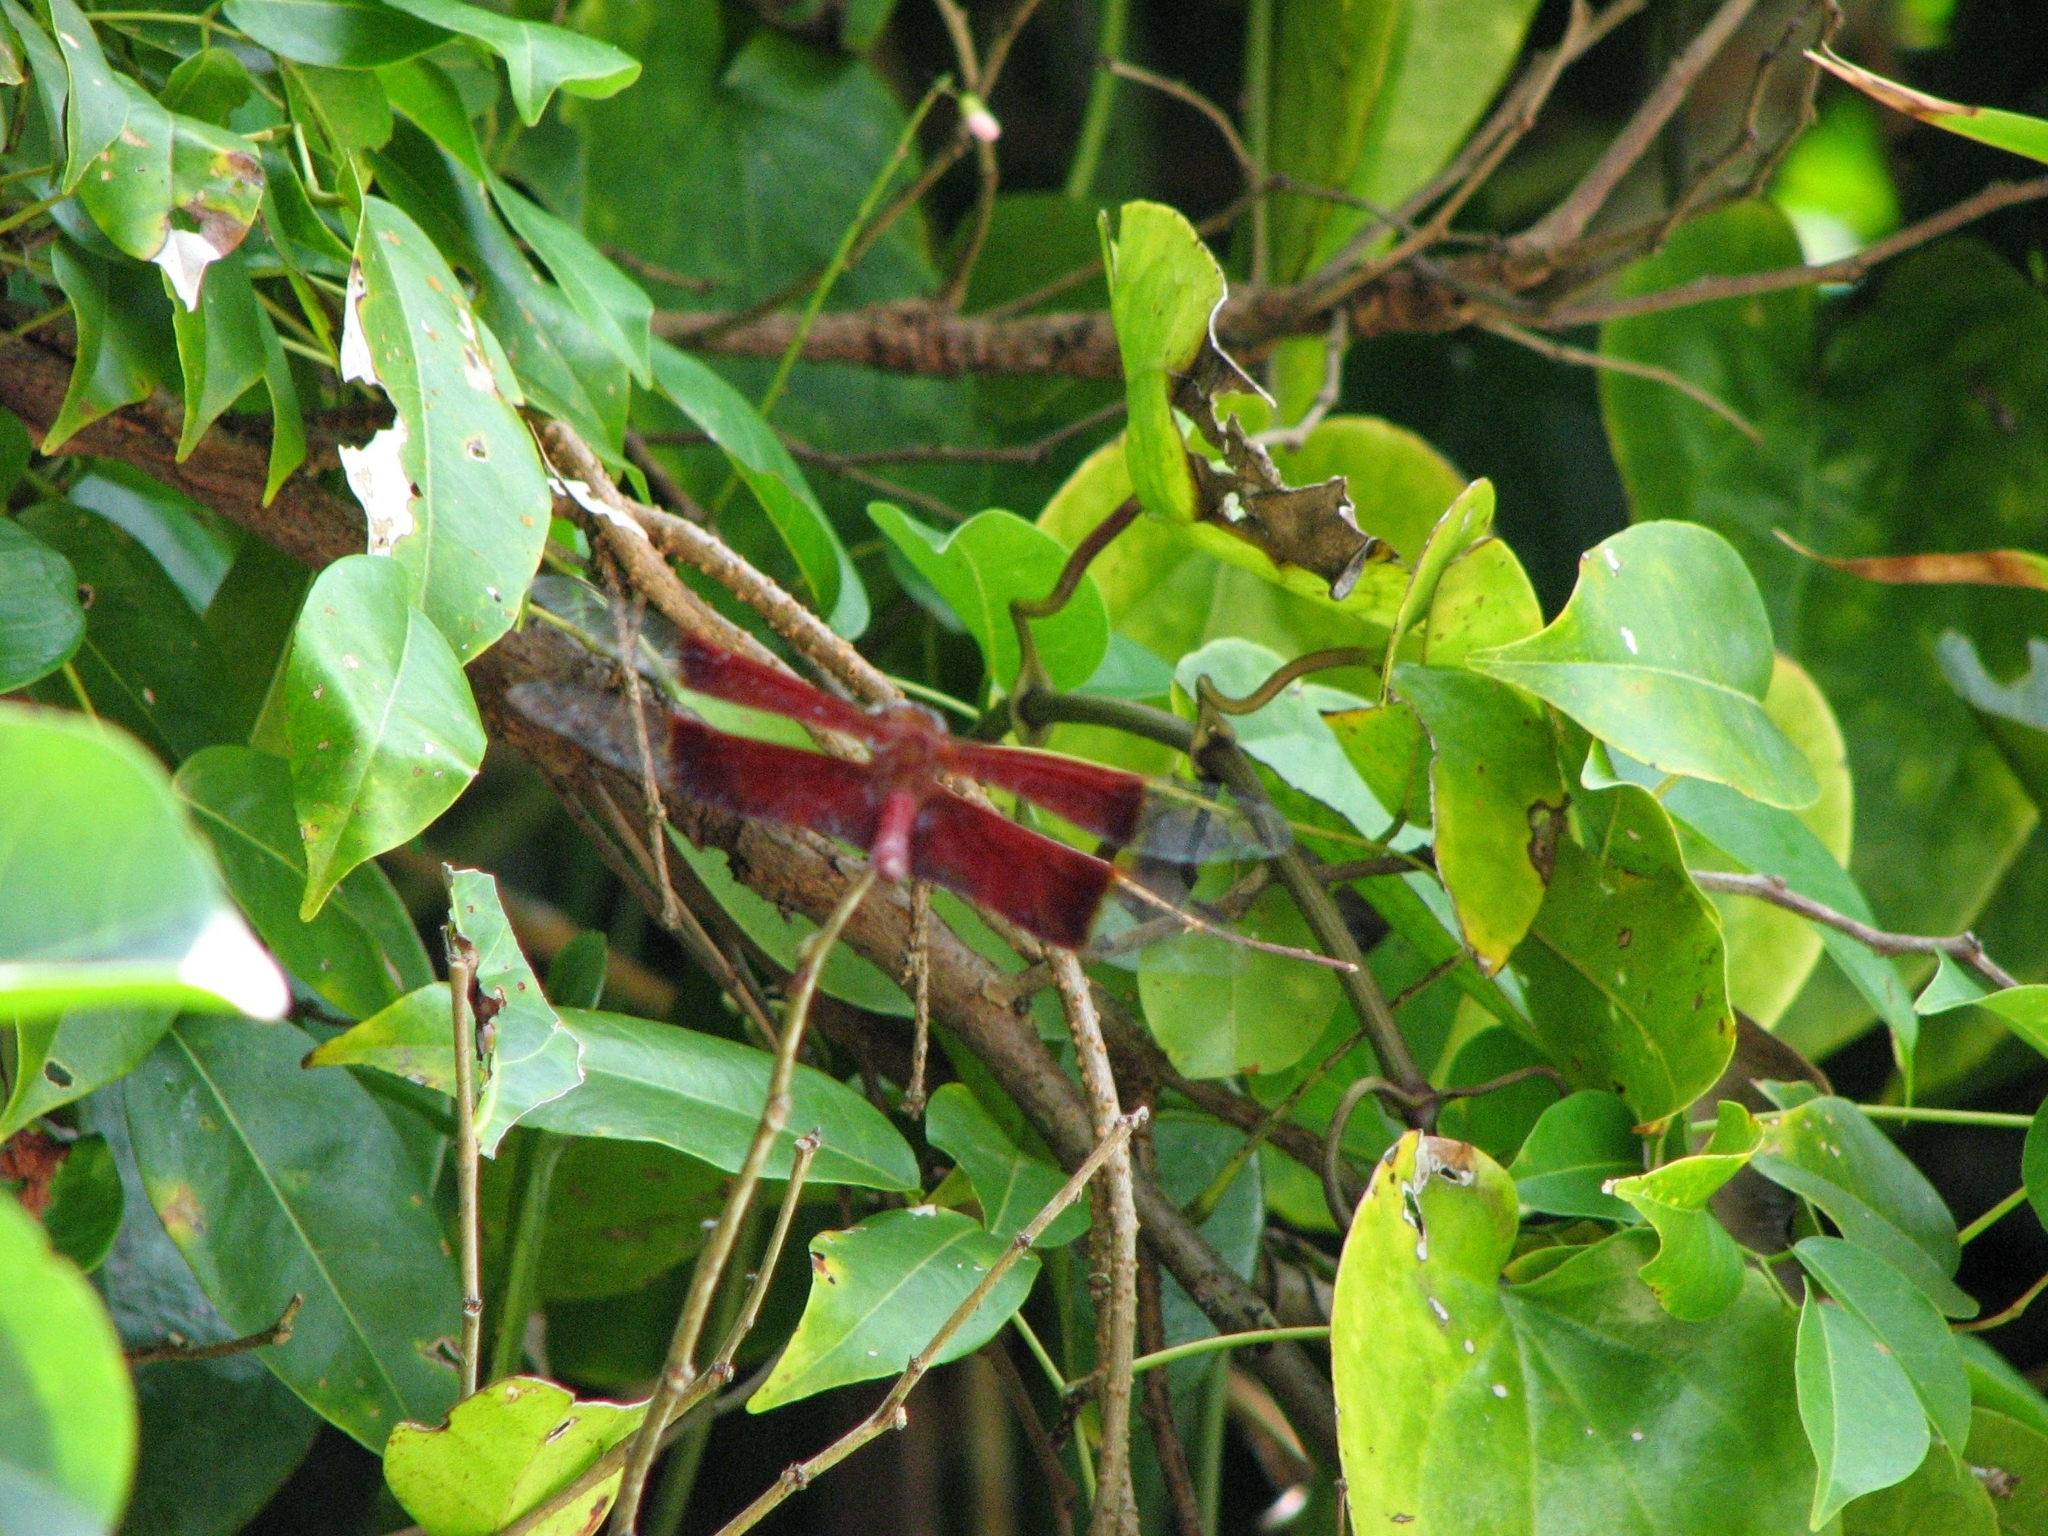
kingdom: Animalia
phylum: Arthropoda
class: Insecta
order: Odonata
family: Libellulidae
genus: Camacinia
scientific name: Camacinia gigantea
